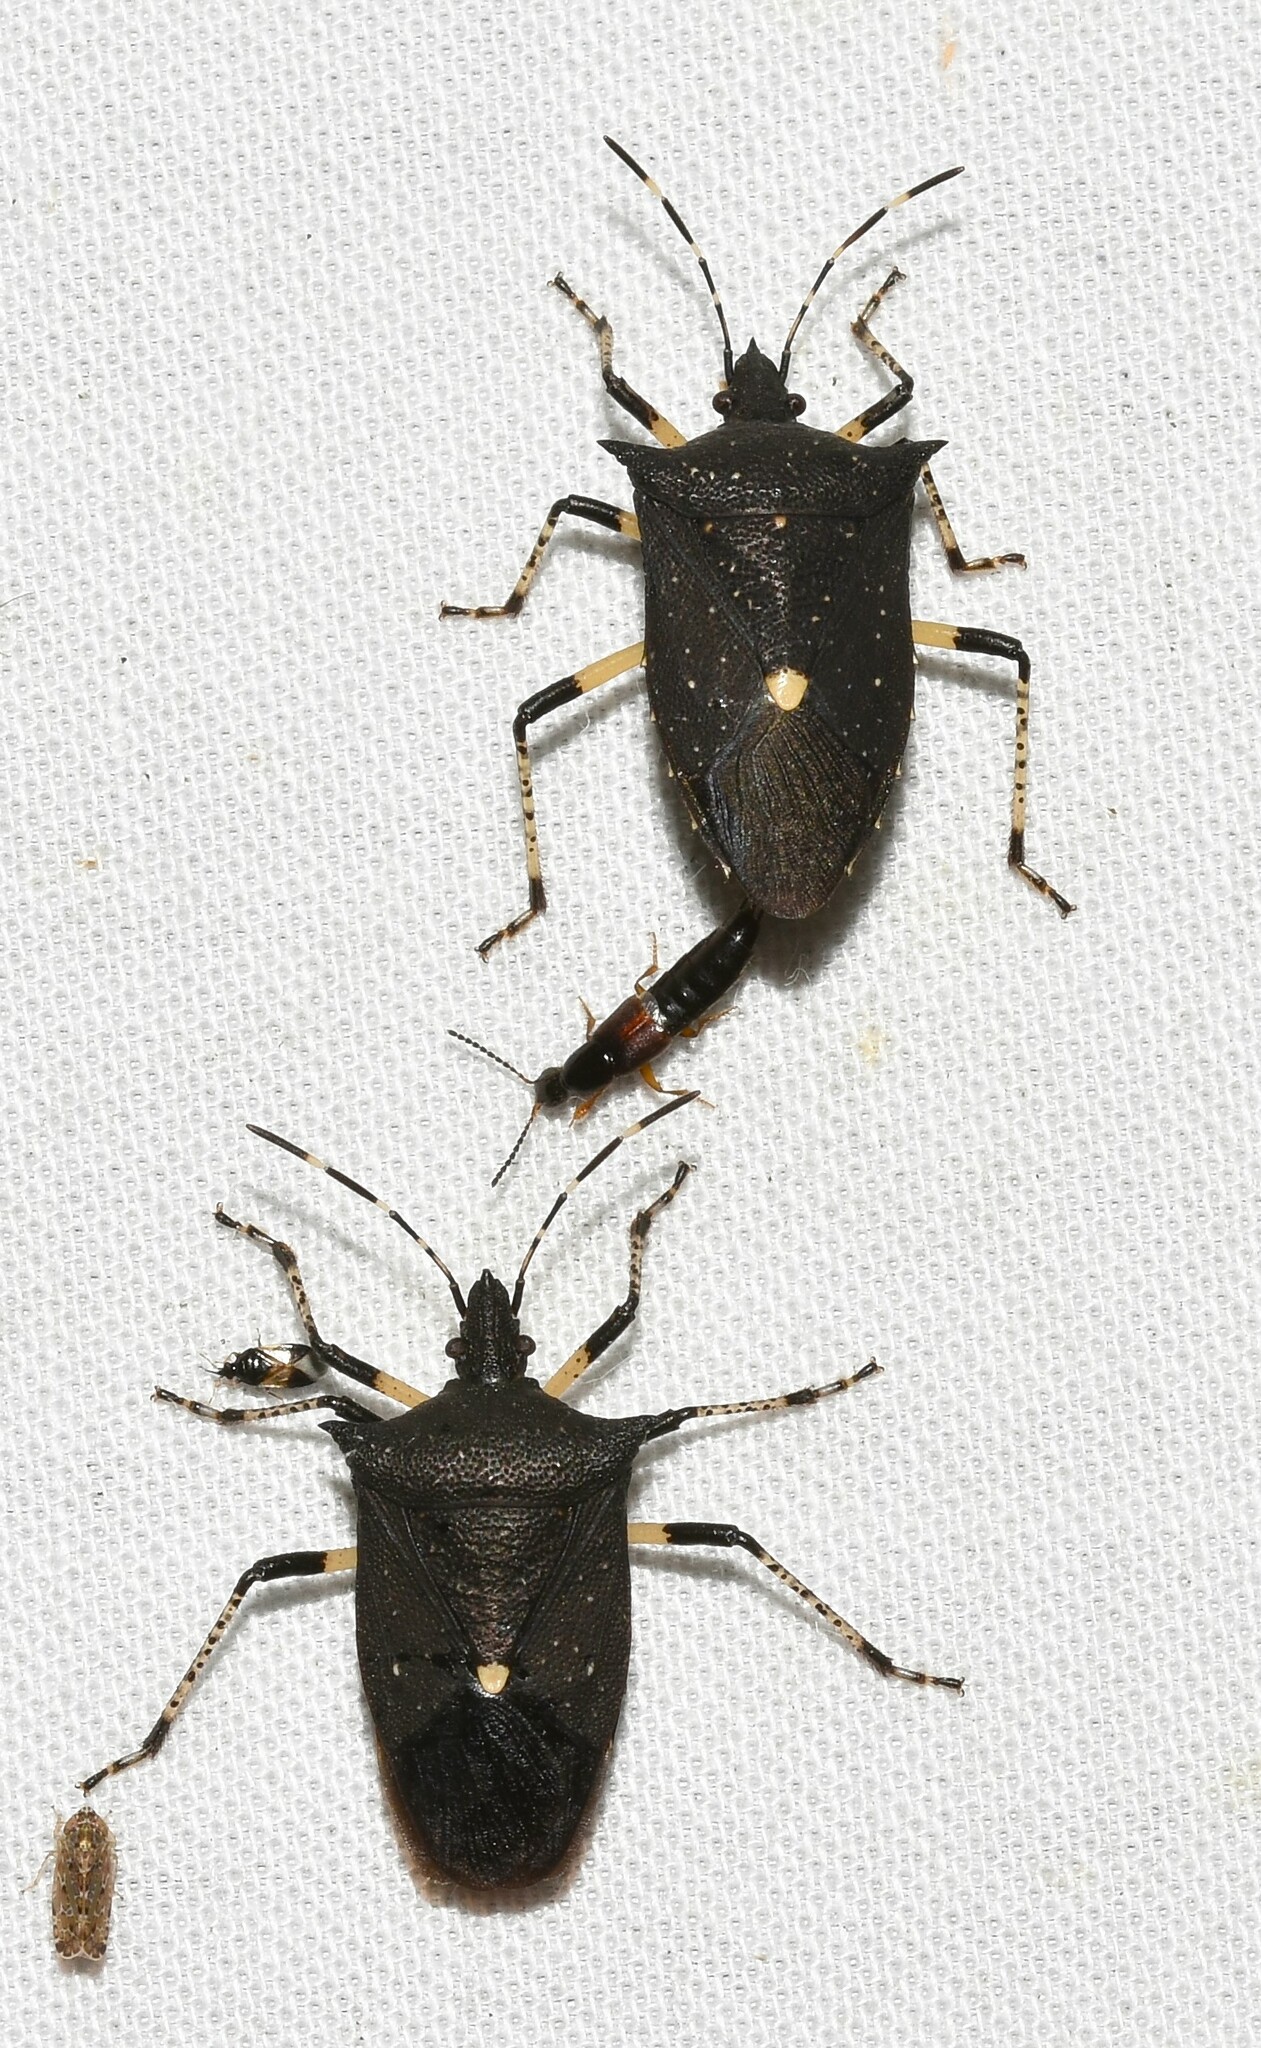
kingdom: Animalia
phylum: Arthropoda
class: Insecta
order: Hemiptera
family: Pentatomidae
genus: Proxys
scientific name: Proxys punctulatus
